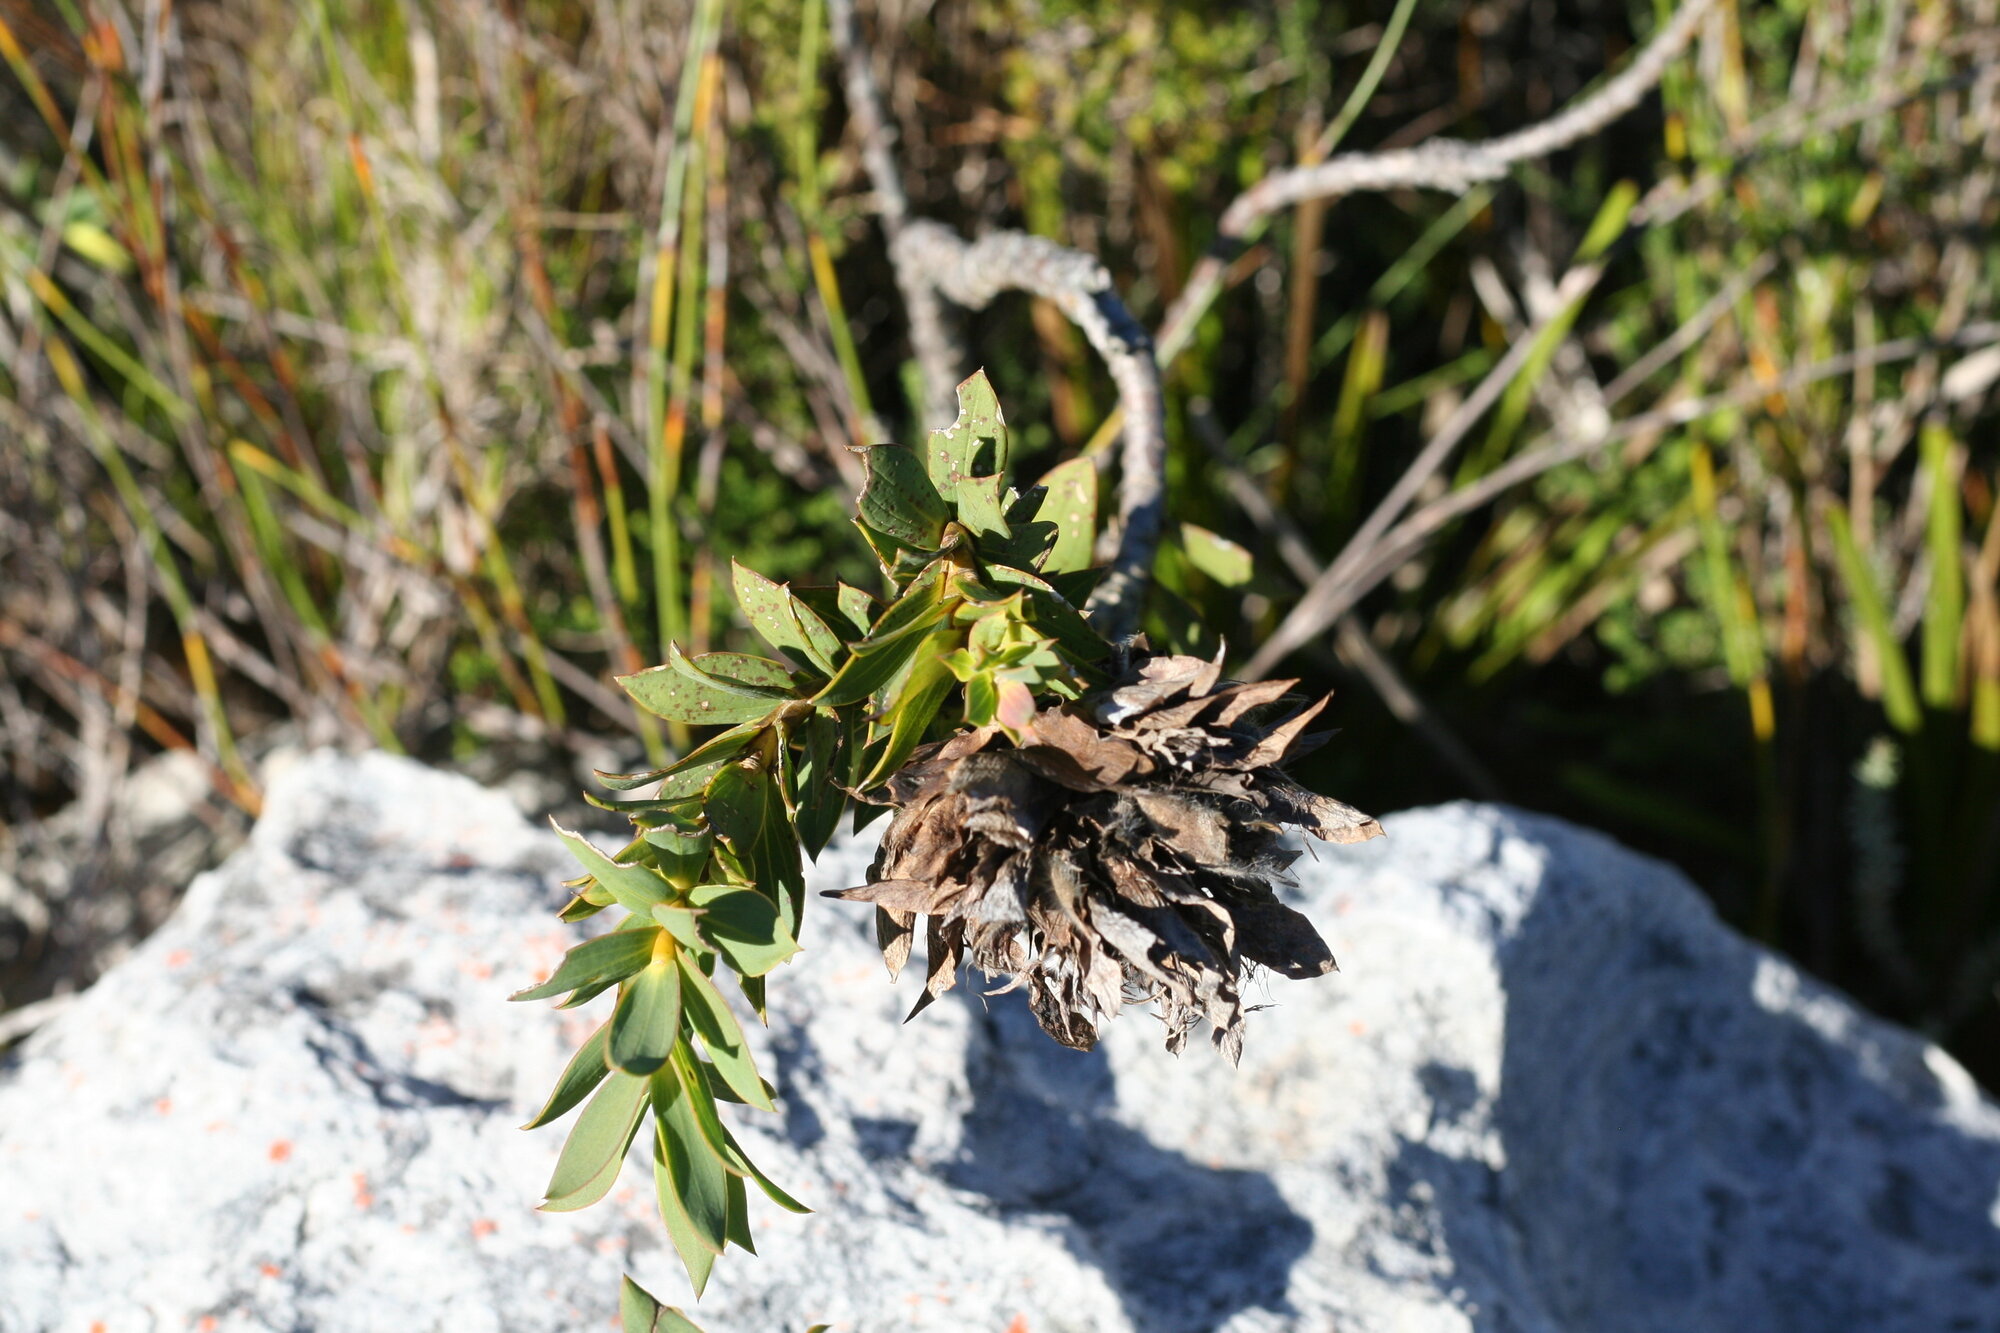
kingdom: Plantae
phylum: Tracheophyta
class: Magnoliopsida
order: Fabales
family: Fabaceae
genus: Liparia
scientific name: Liparia splendens
